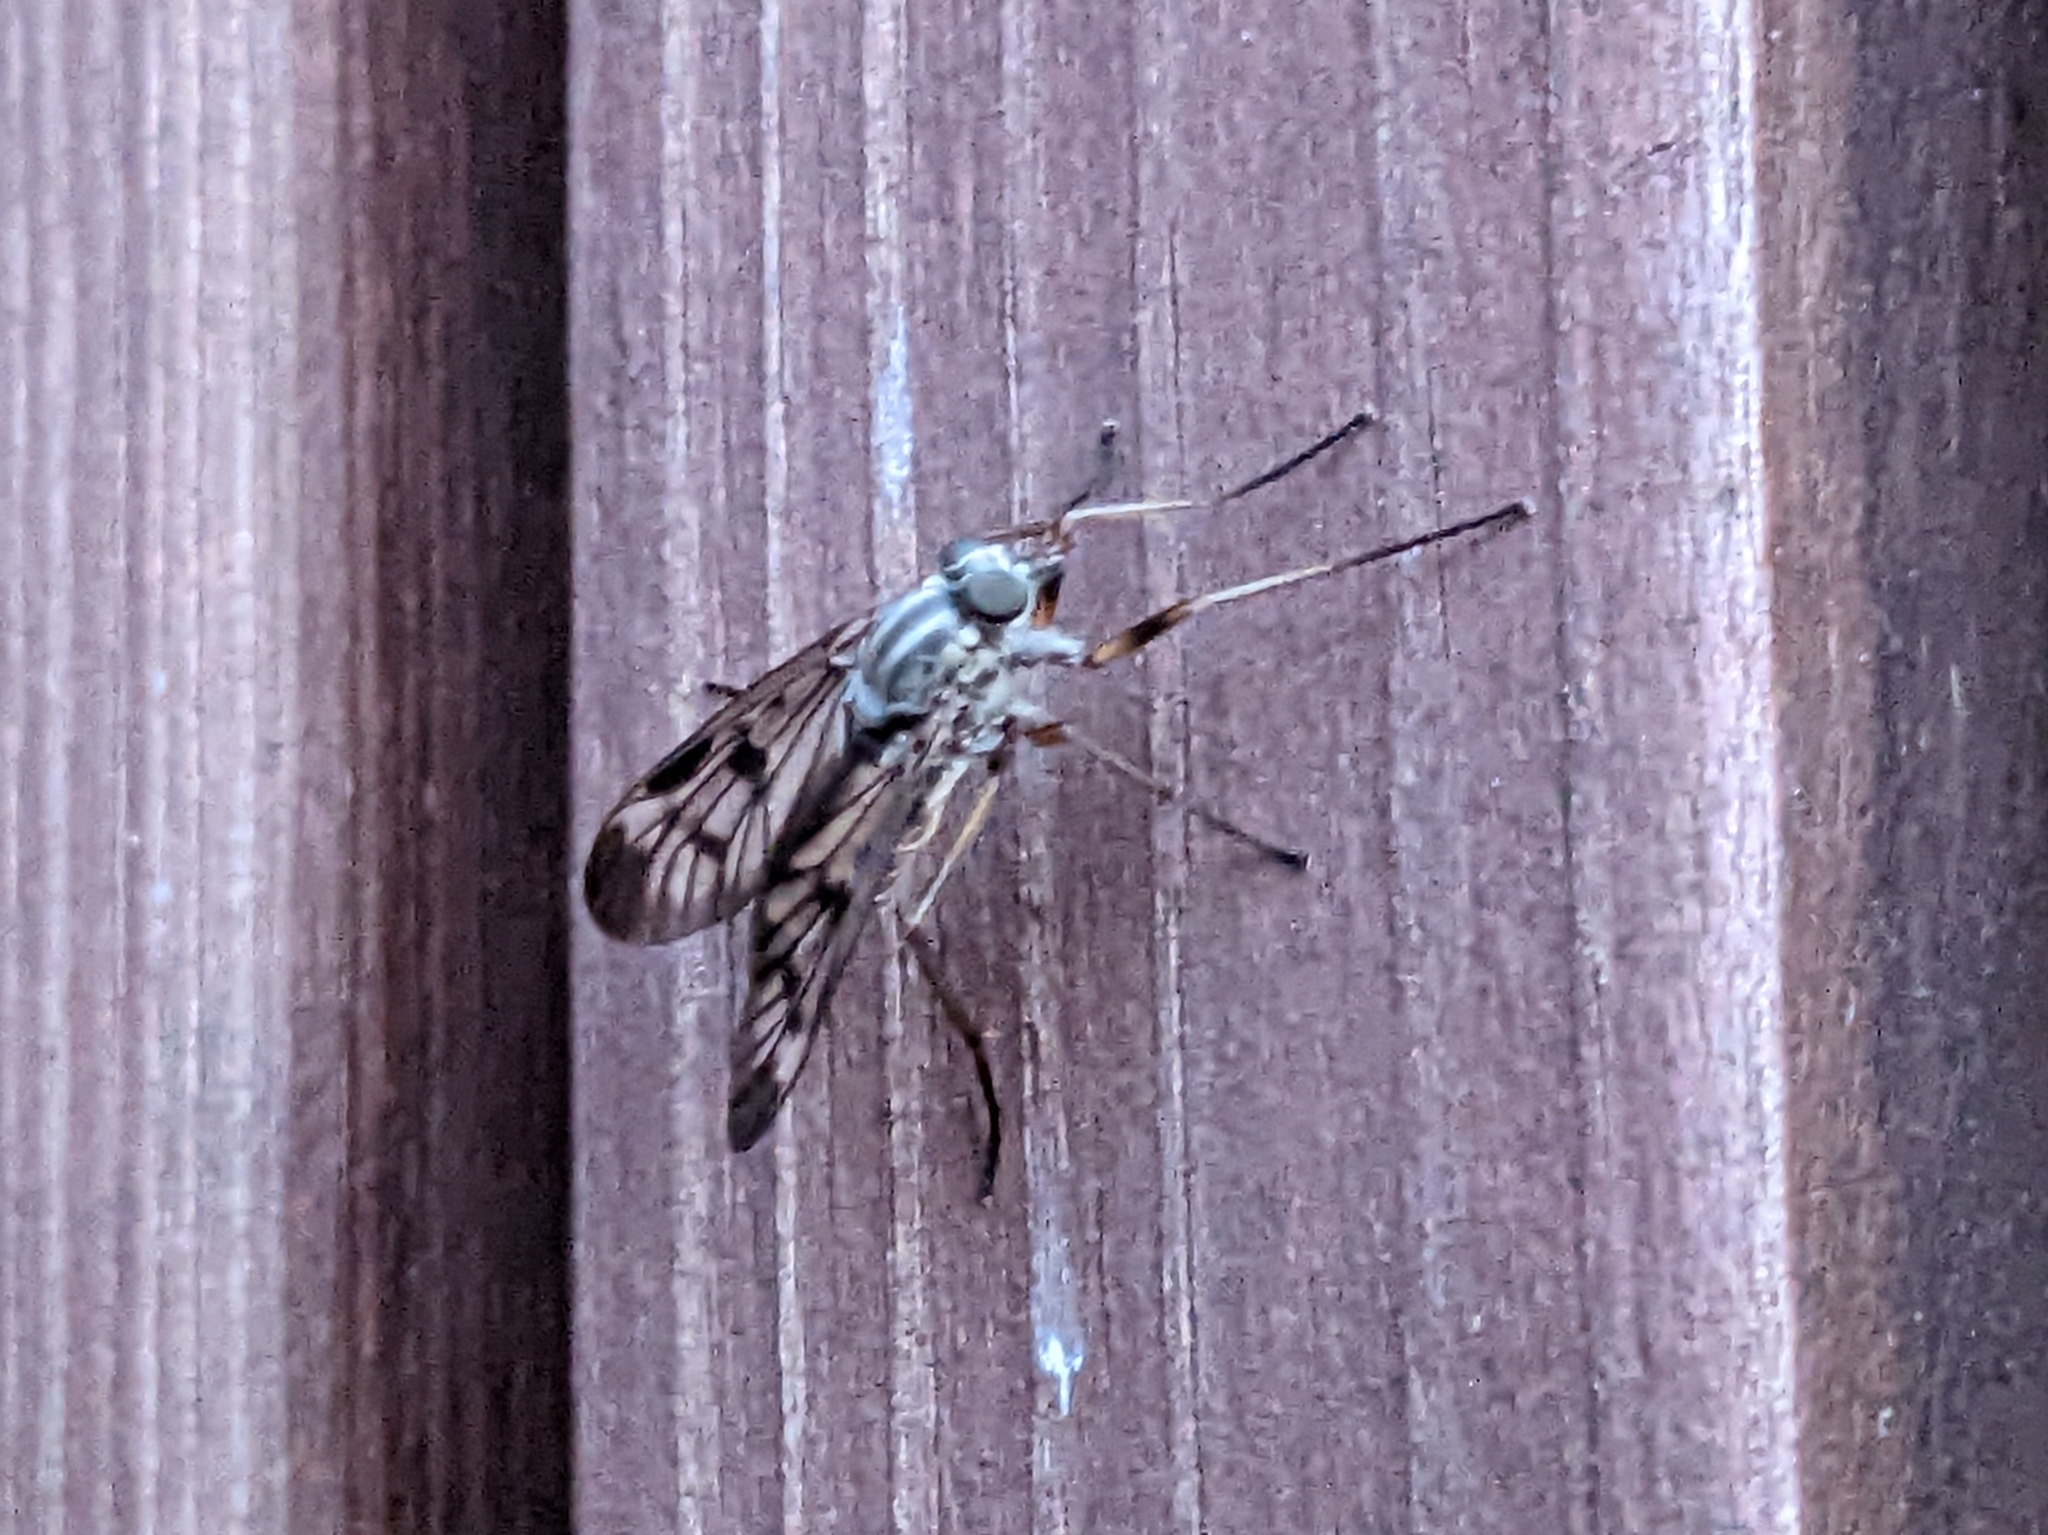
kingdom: Animalia
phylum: Arthropoda
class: Insecta
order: Diptera
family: Rhagionidae
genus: Rhagio
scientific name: Rhagio scolopacea
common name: Downlooker snipefly
